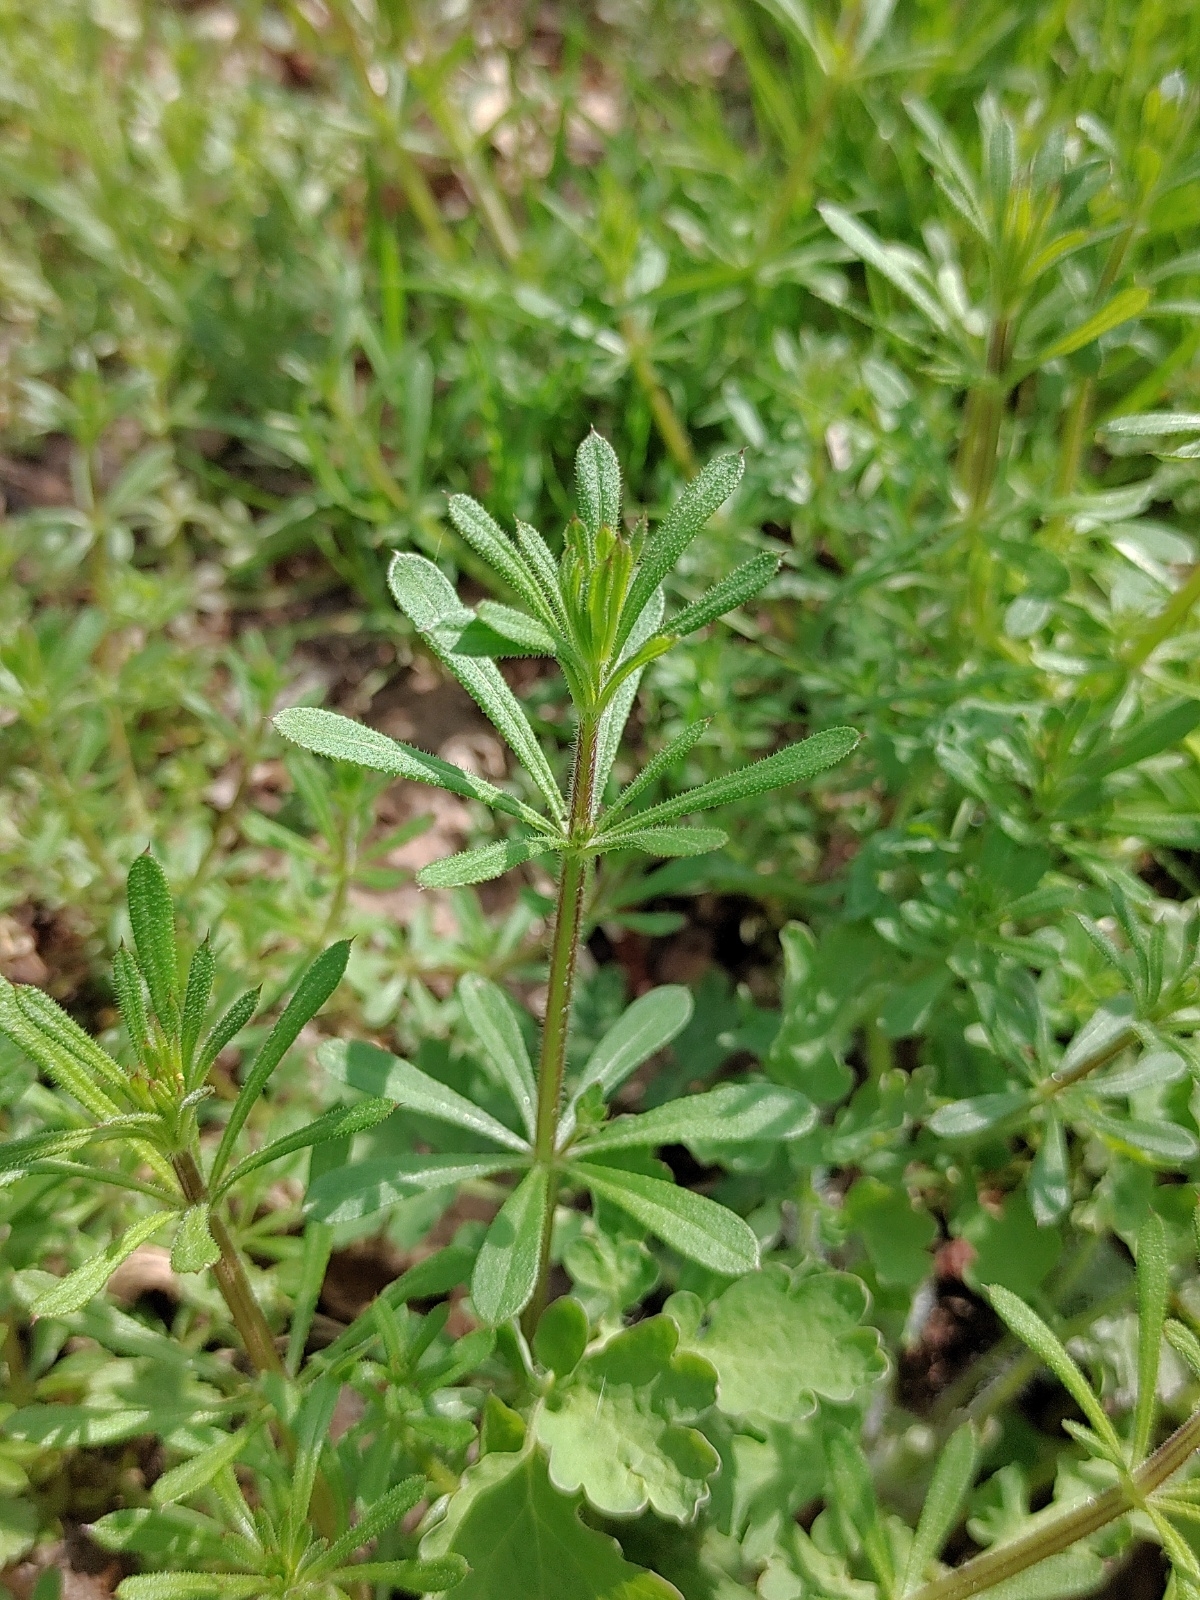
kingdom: Plantae
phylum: Tracheophyta
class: Magnoliopsida
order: Gentianales
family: Rubiaceae
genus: Galium
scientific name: Galium aparine
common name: Cleavers
